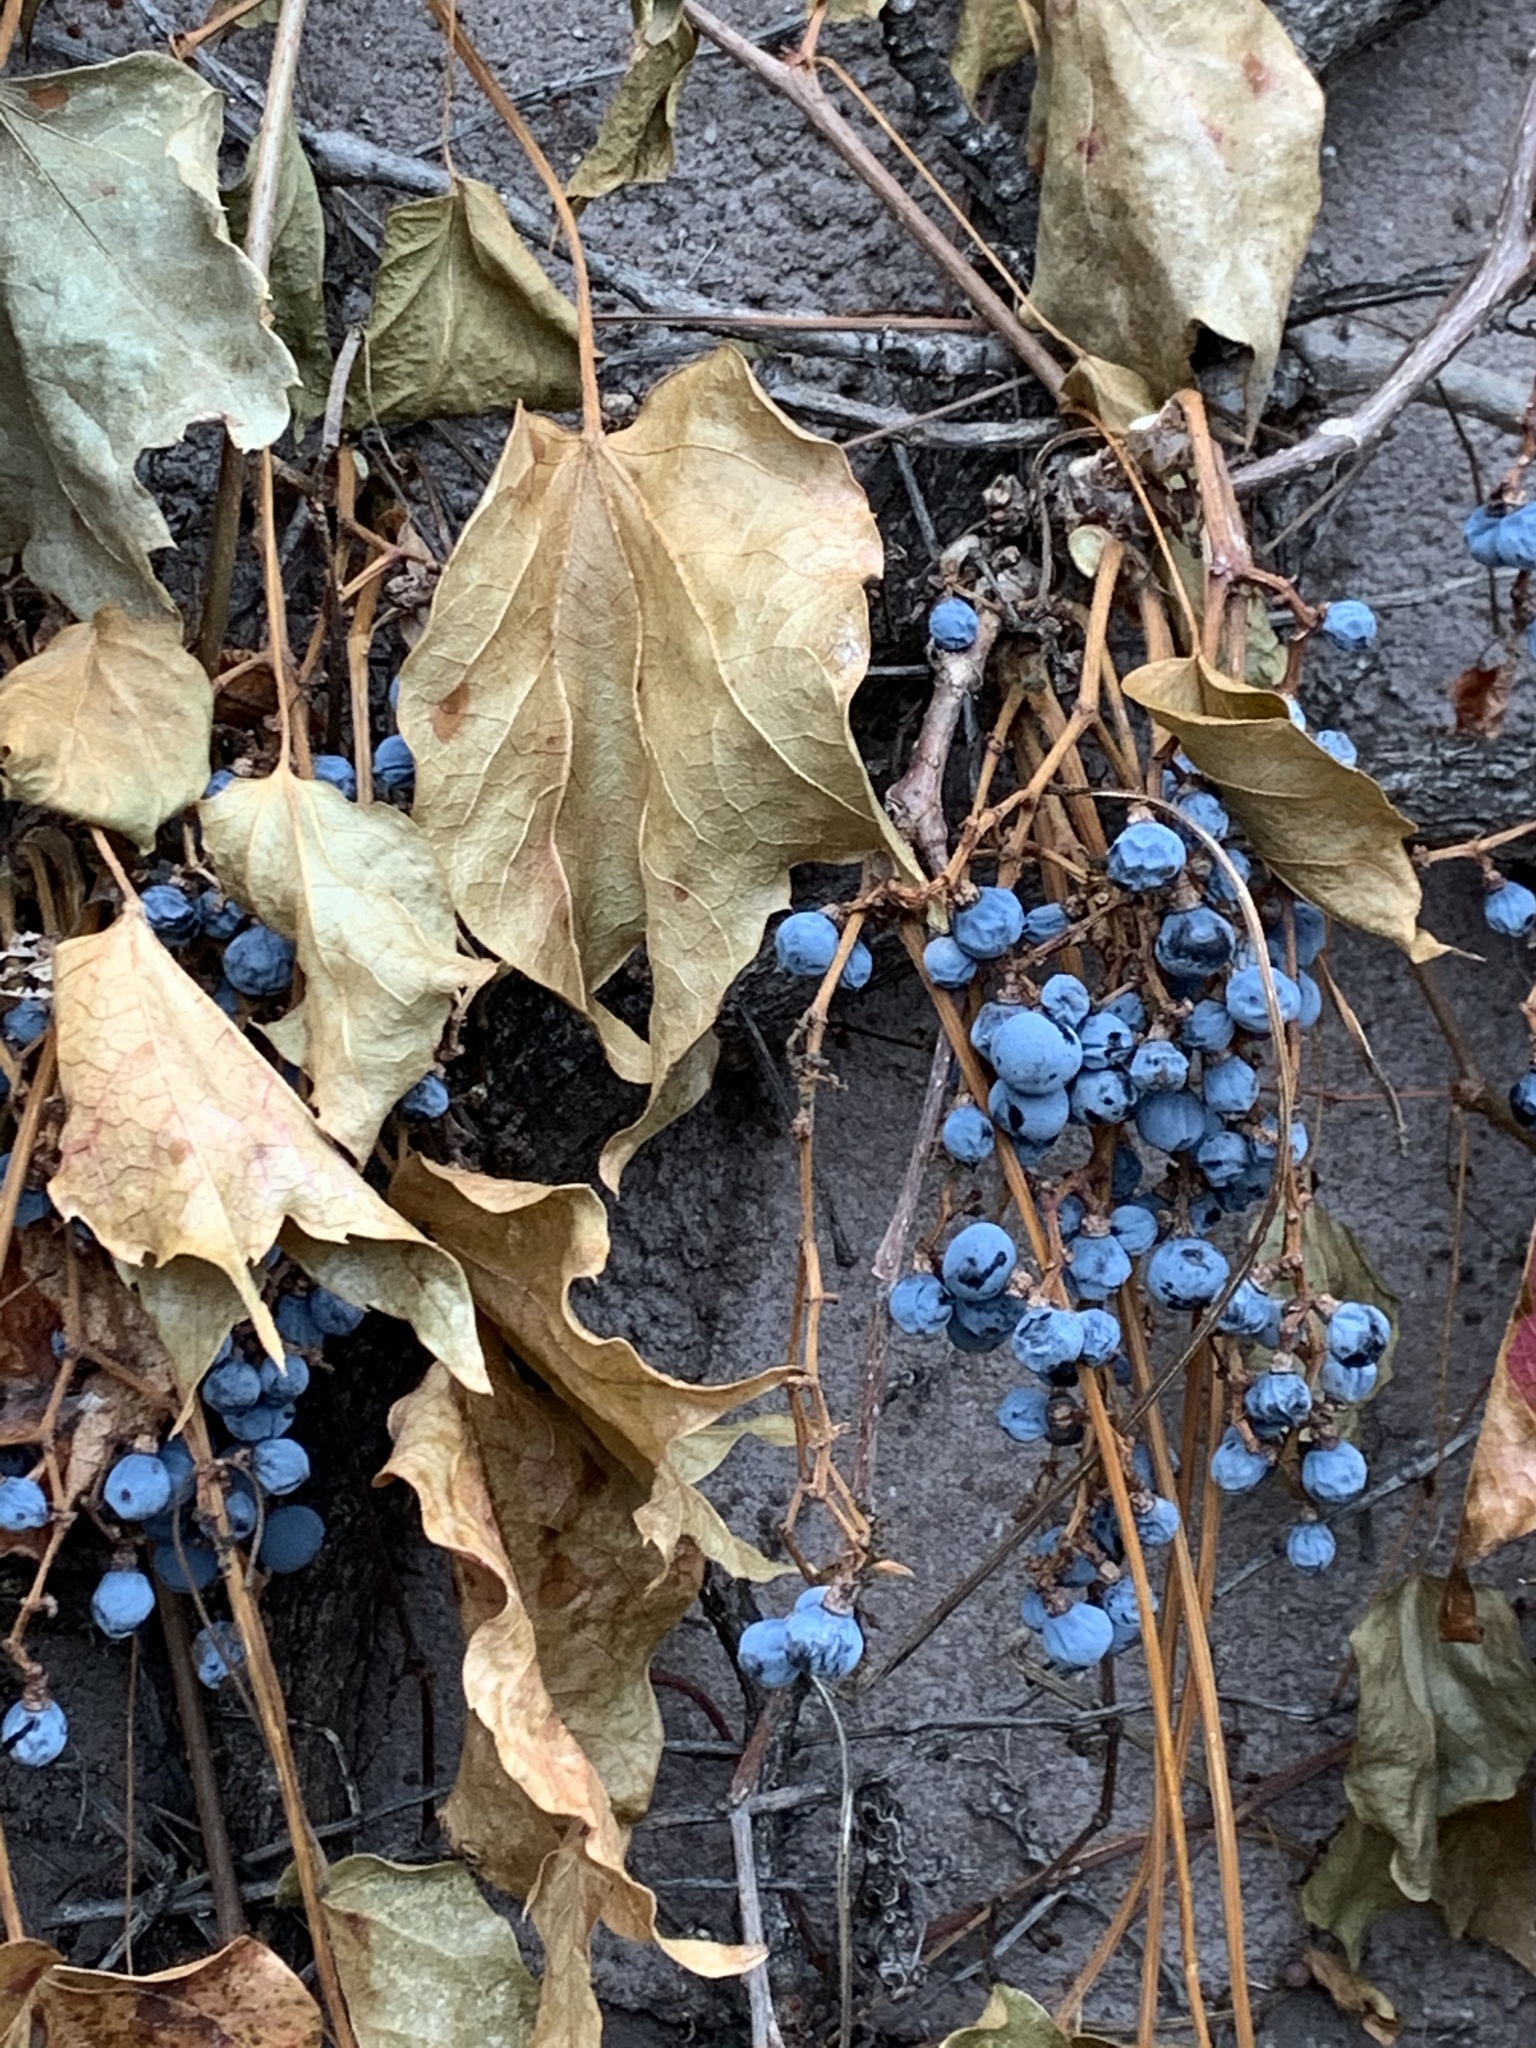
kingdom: Plantae
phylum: Tracheophyta
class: Magnoliopsida
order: Vitales
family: Vitaceae
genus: Parthenocissus
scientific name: Parthenocissus tricuspidata
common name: Boston ivy
